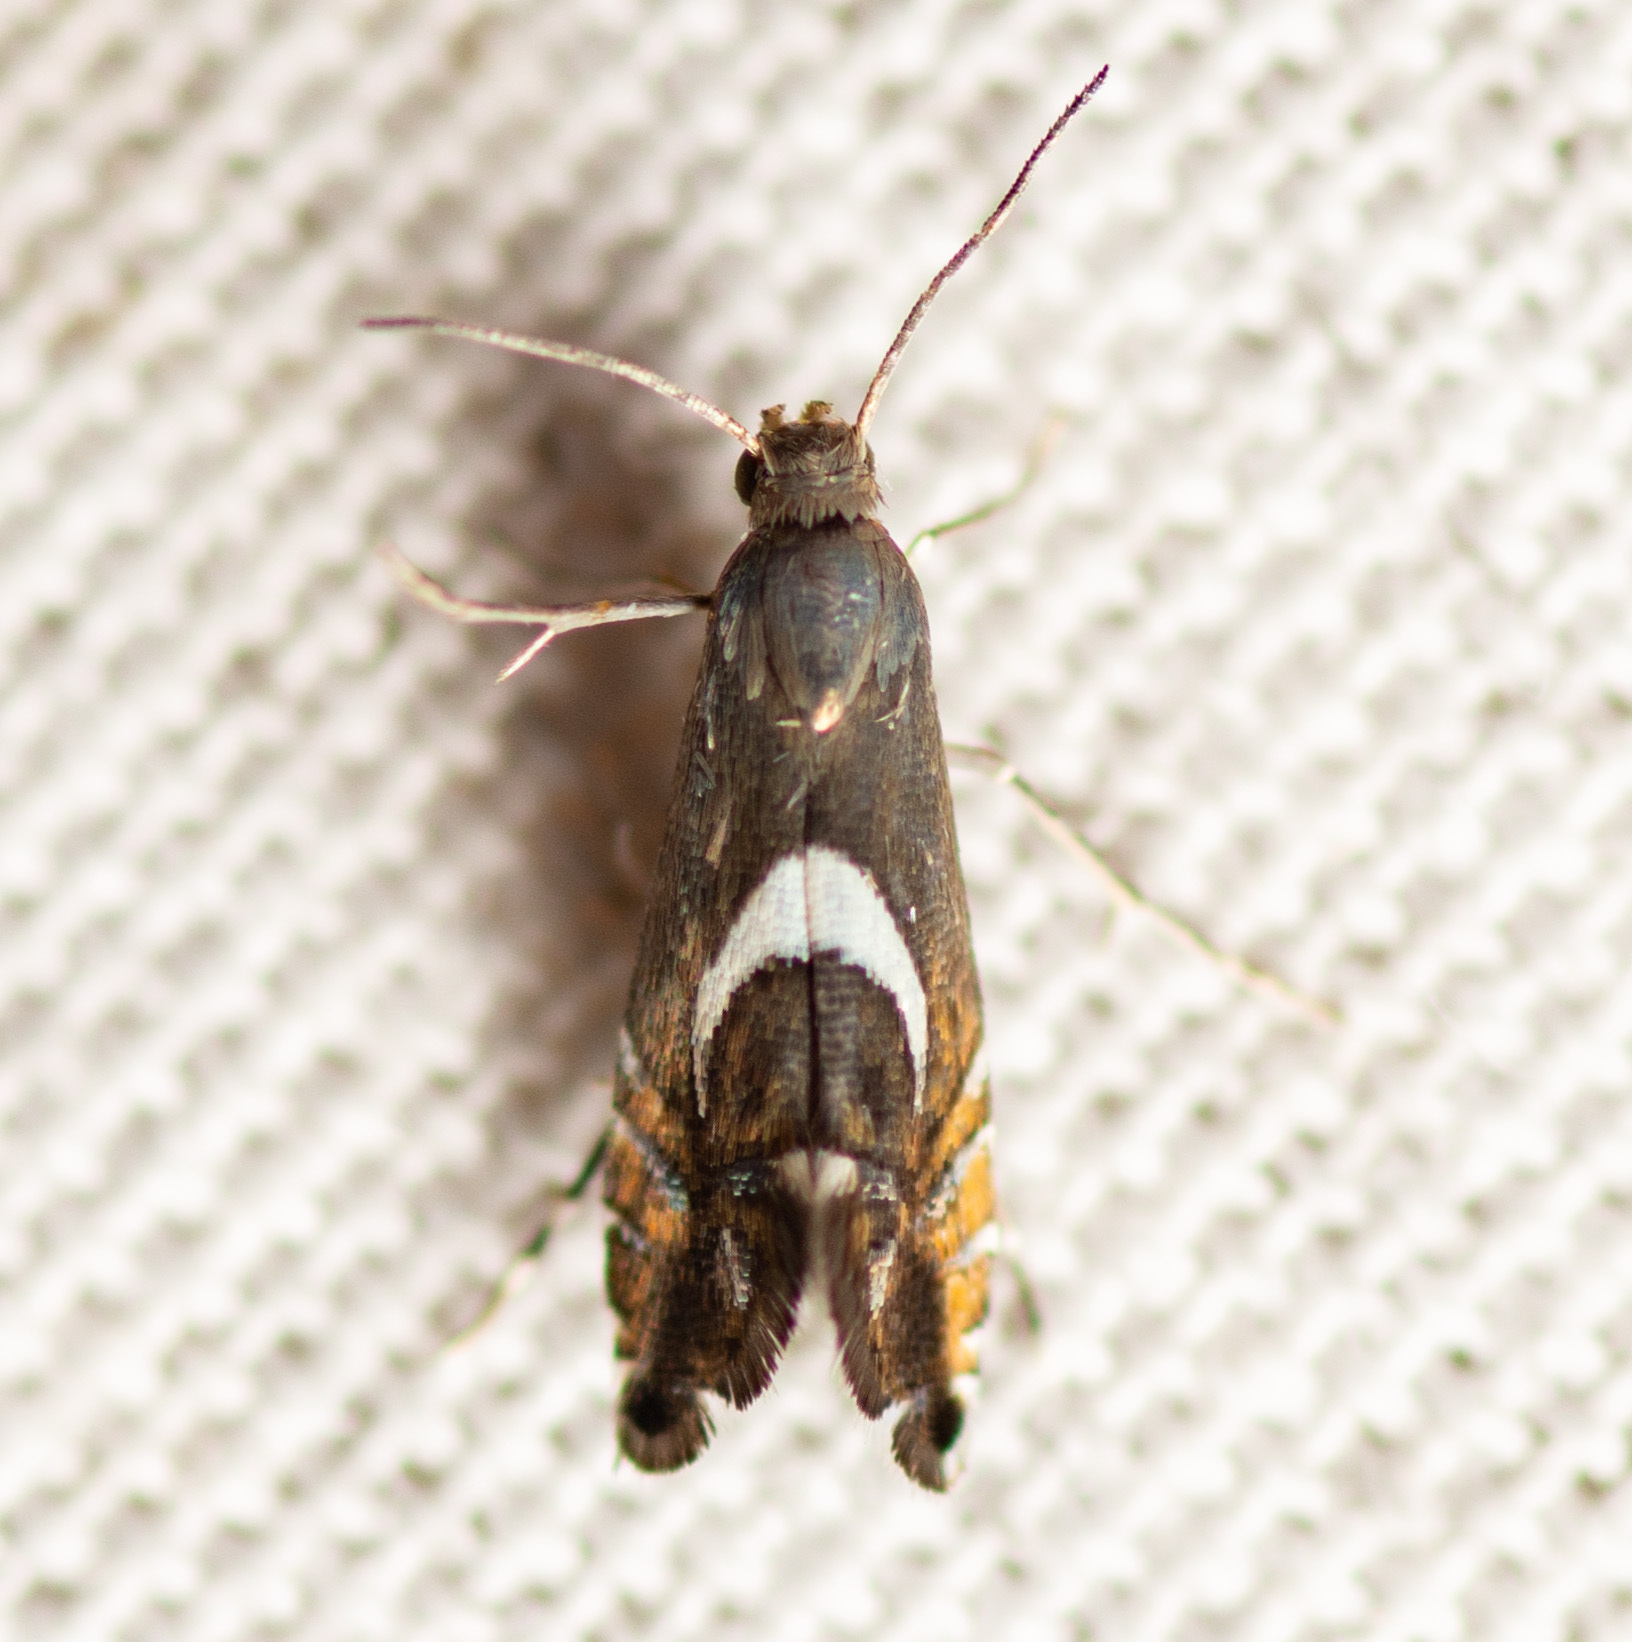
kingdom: Animalia
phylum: Arthropoda
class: Insecta
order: Lepidoptera
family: Glyphipterigidae
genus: Glyphipterix
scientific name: Glyphipterix Diploschizia impigritella
